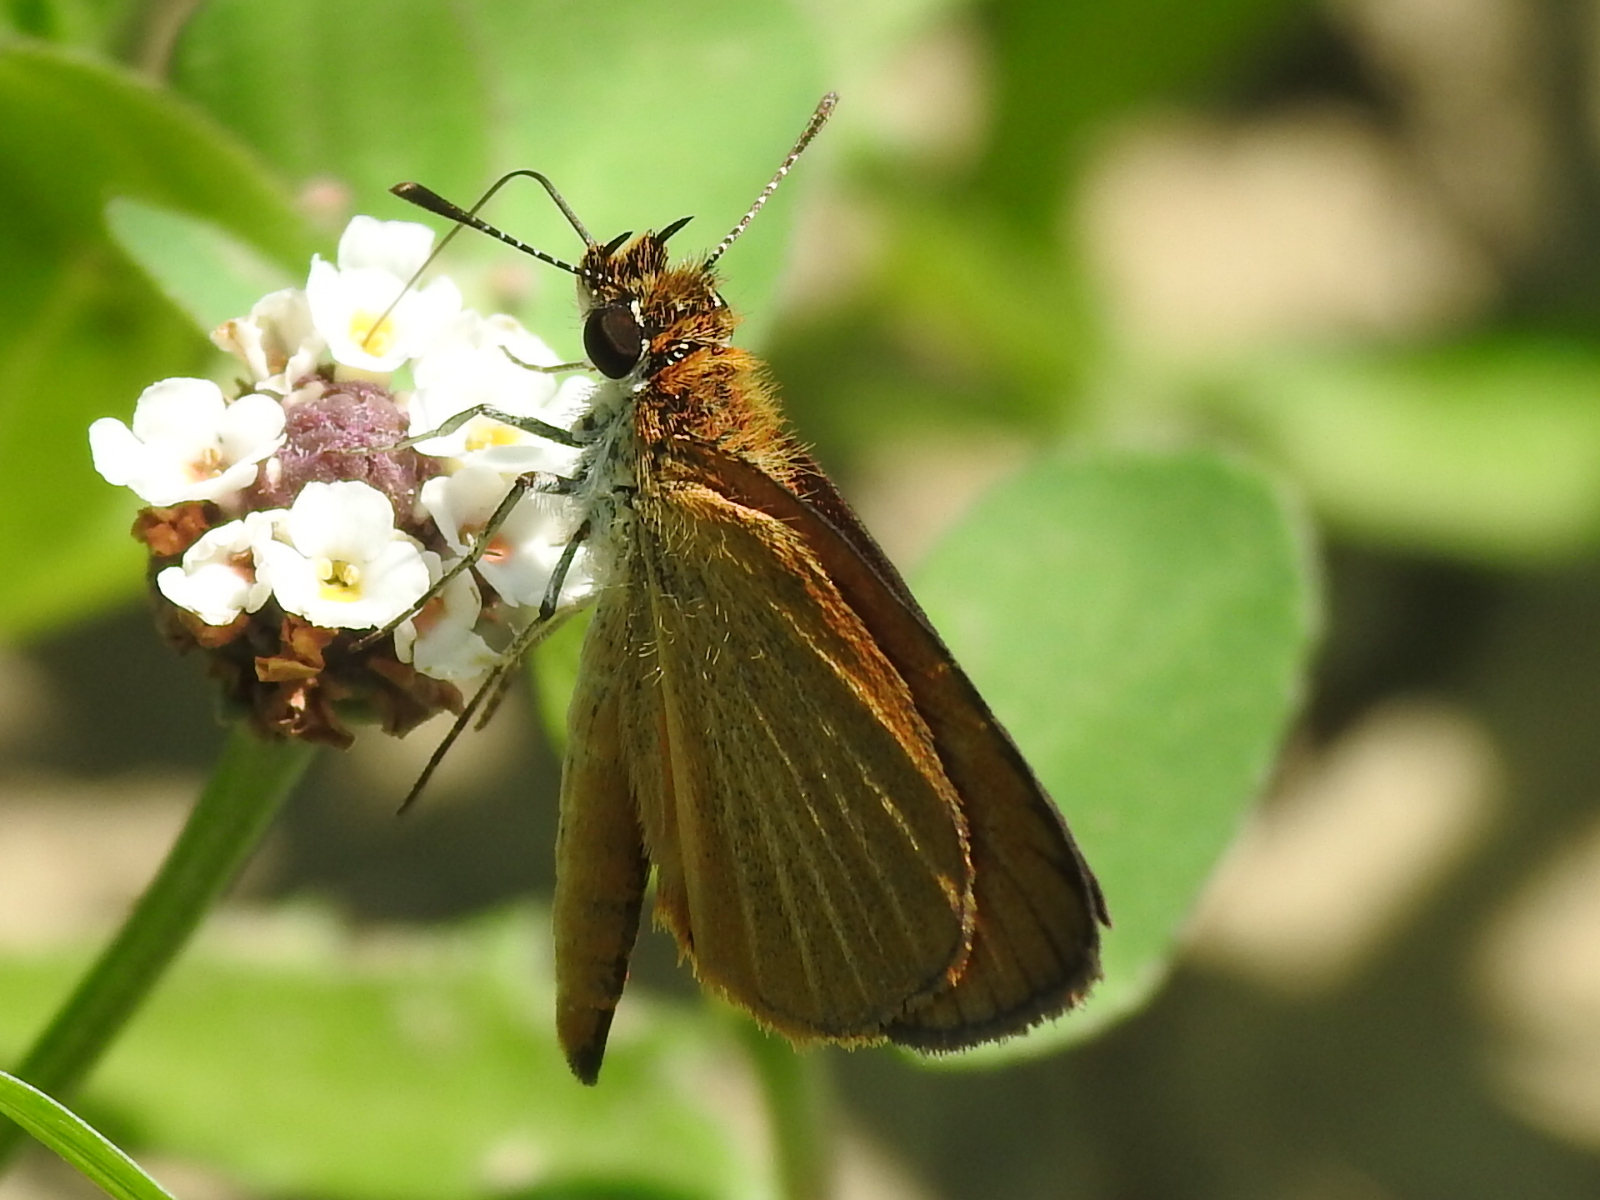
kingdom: Animalia
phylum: Arthropoda
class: Insecta
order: Lepidoptera
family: Hesperiidae
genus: Ancyloxypha
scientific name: Ancyloxypha numitor
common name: Least skipper
